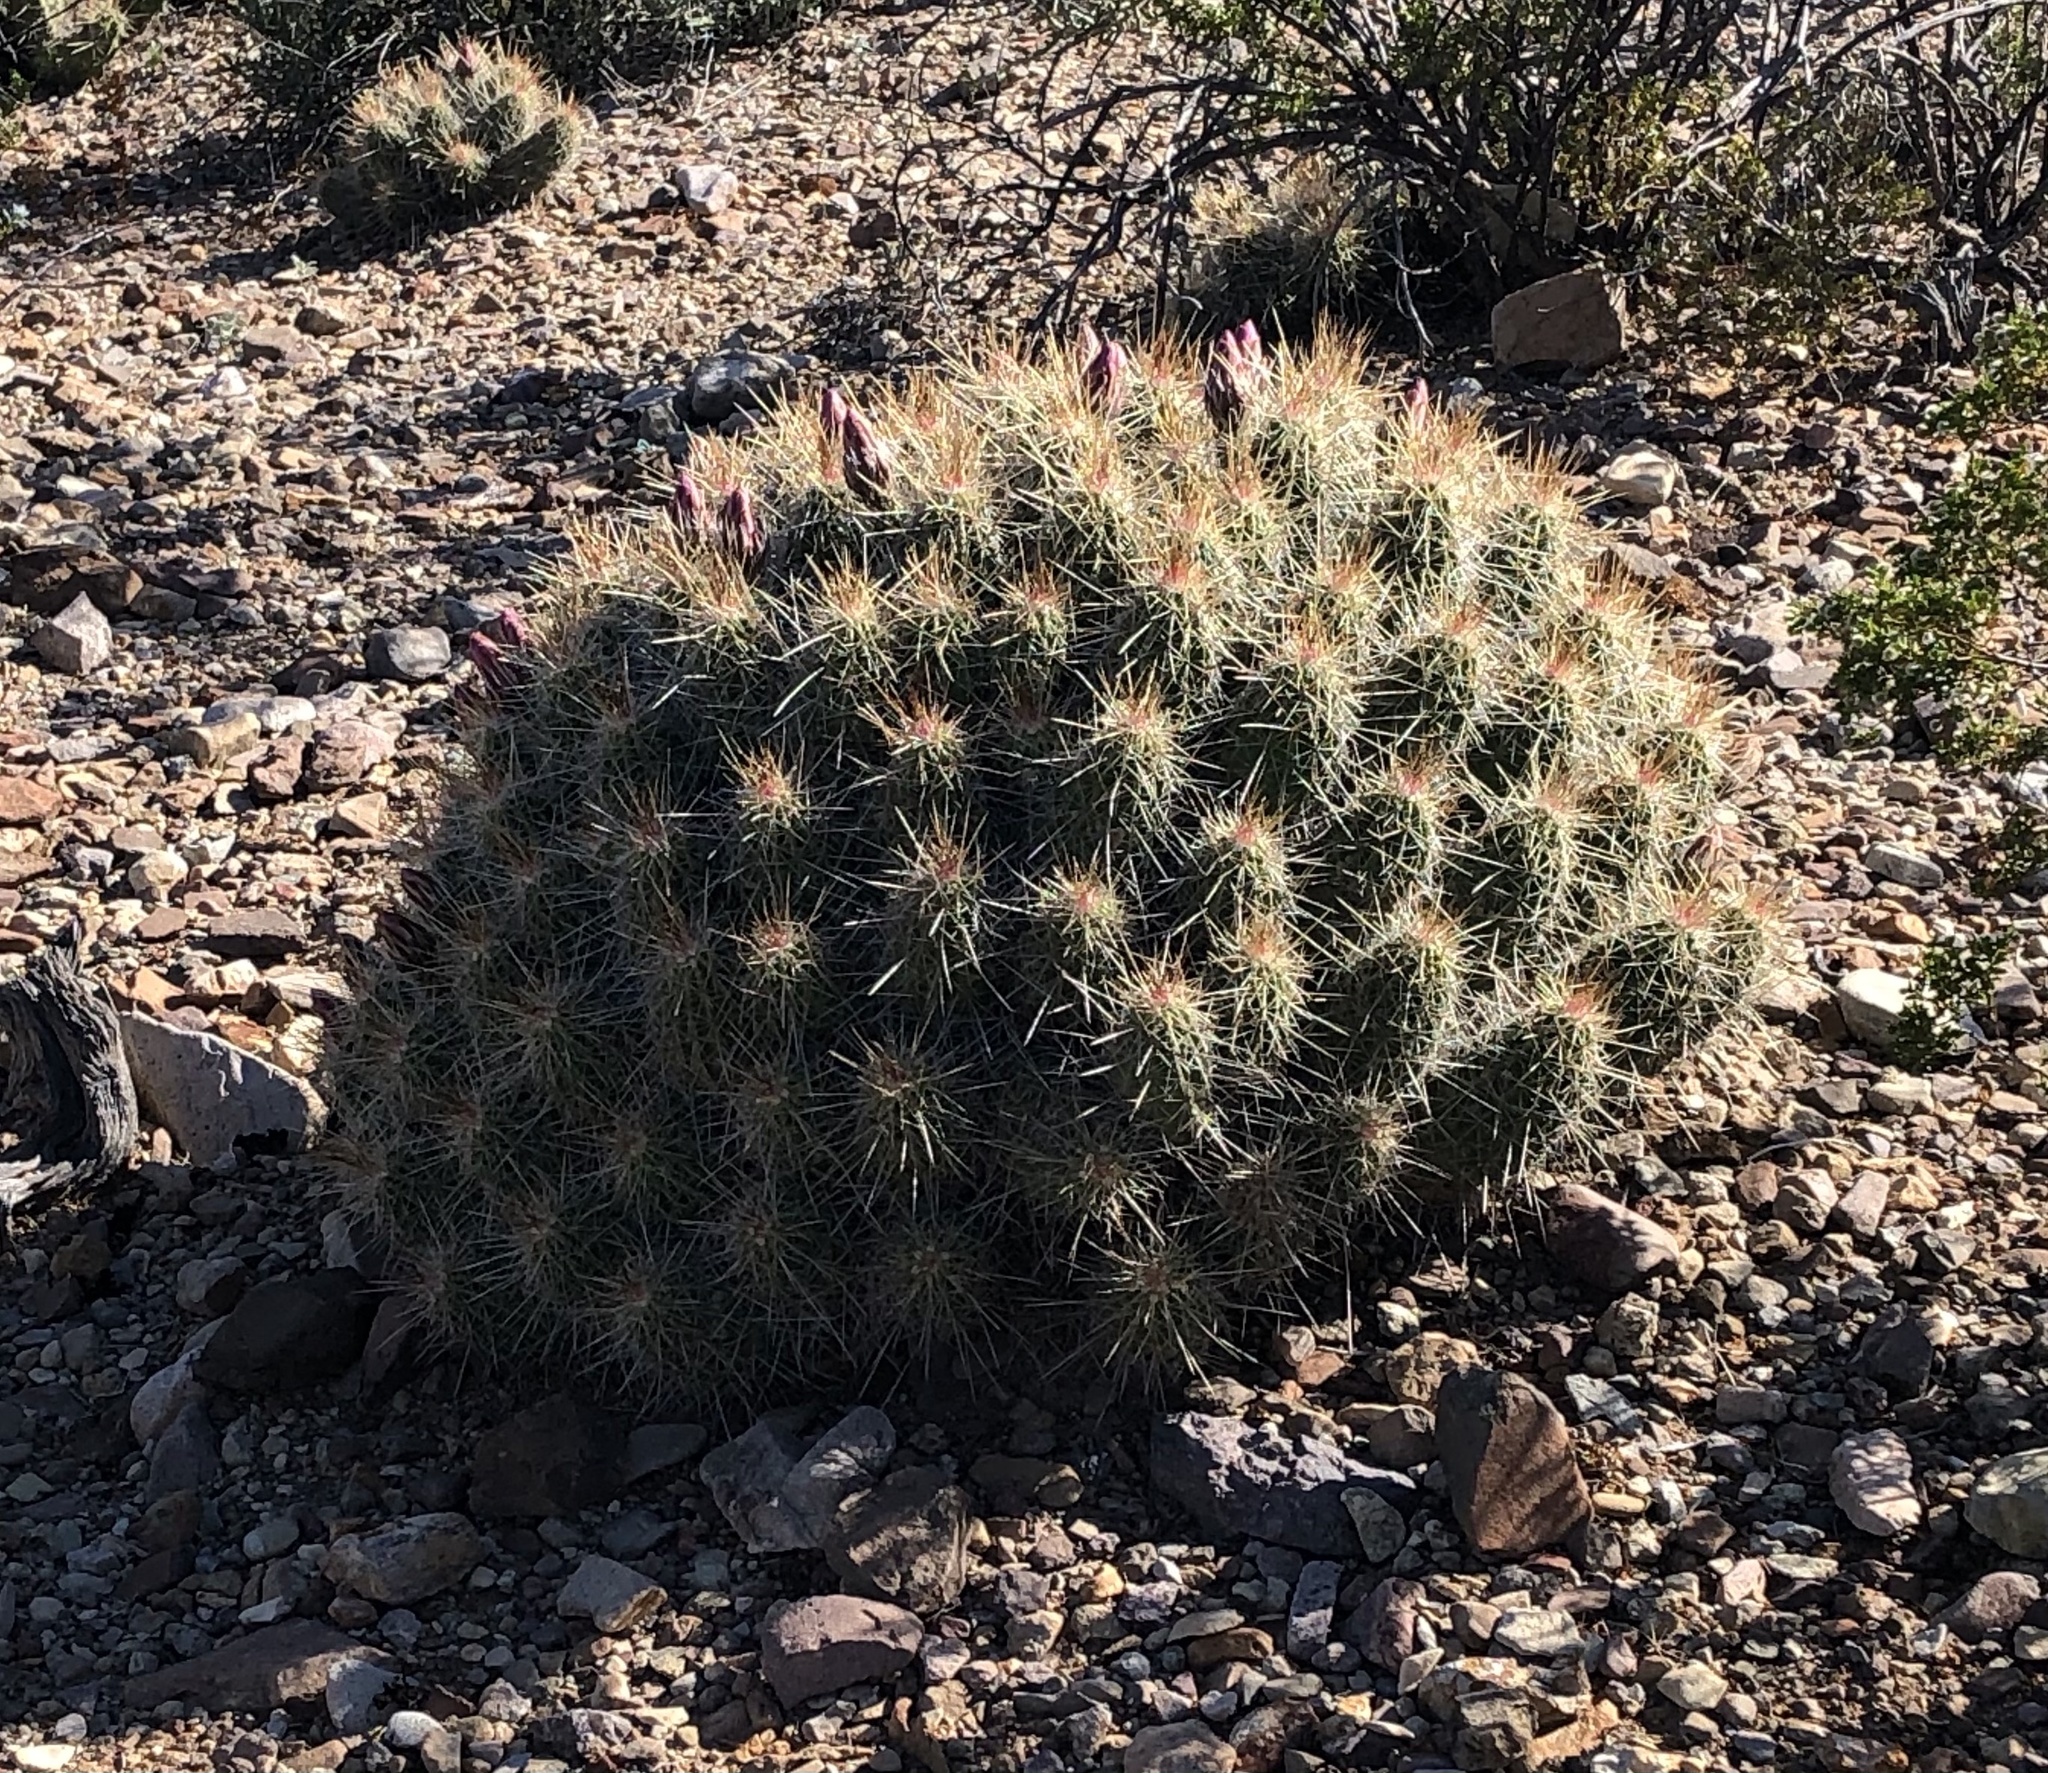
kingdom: Plantae
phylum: Tracheophyta
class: Magnoliopsida
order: Caryophyllales
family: Cactaceae
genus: Echinocereus
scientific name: Echinocereus stramineus
